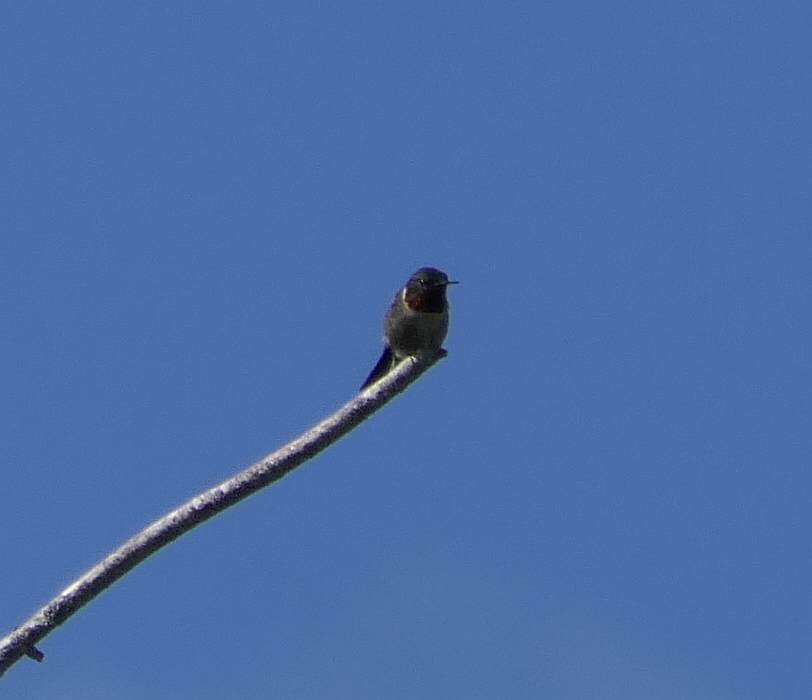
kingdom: Animalia
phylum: Chordata
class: Aves
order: Apodiformes
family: Trochilidae
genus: Archilochus
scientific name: Archilochus colubris
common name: Ruby-throated hummingbird
